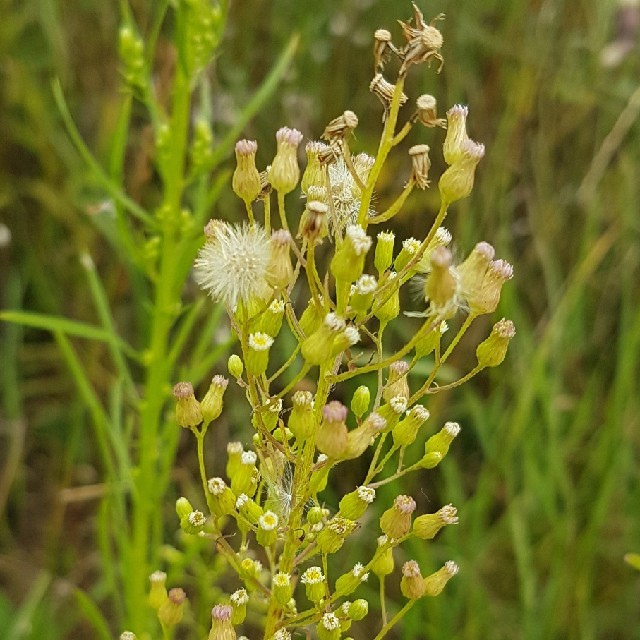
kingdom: Plantae
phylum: Tracheophyta
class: Magnoliopsida
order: Asterales
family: Asteraceae
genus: Erigeron
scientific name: Erigeron canadensis
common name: Canadian fleabane
